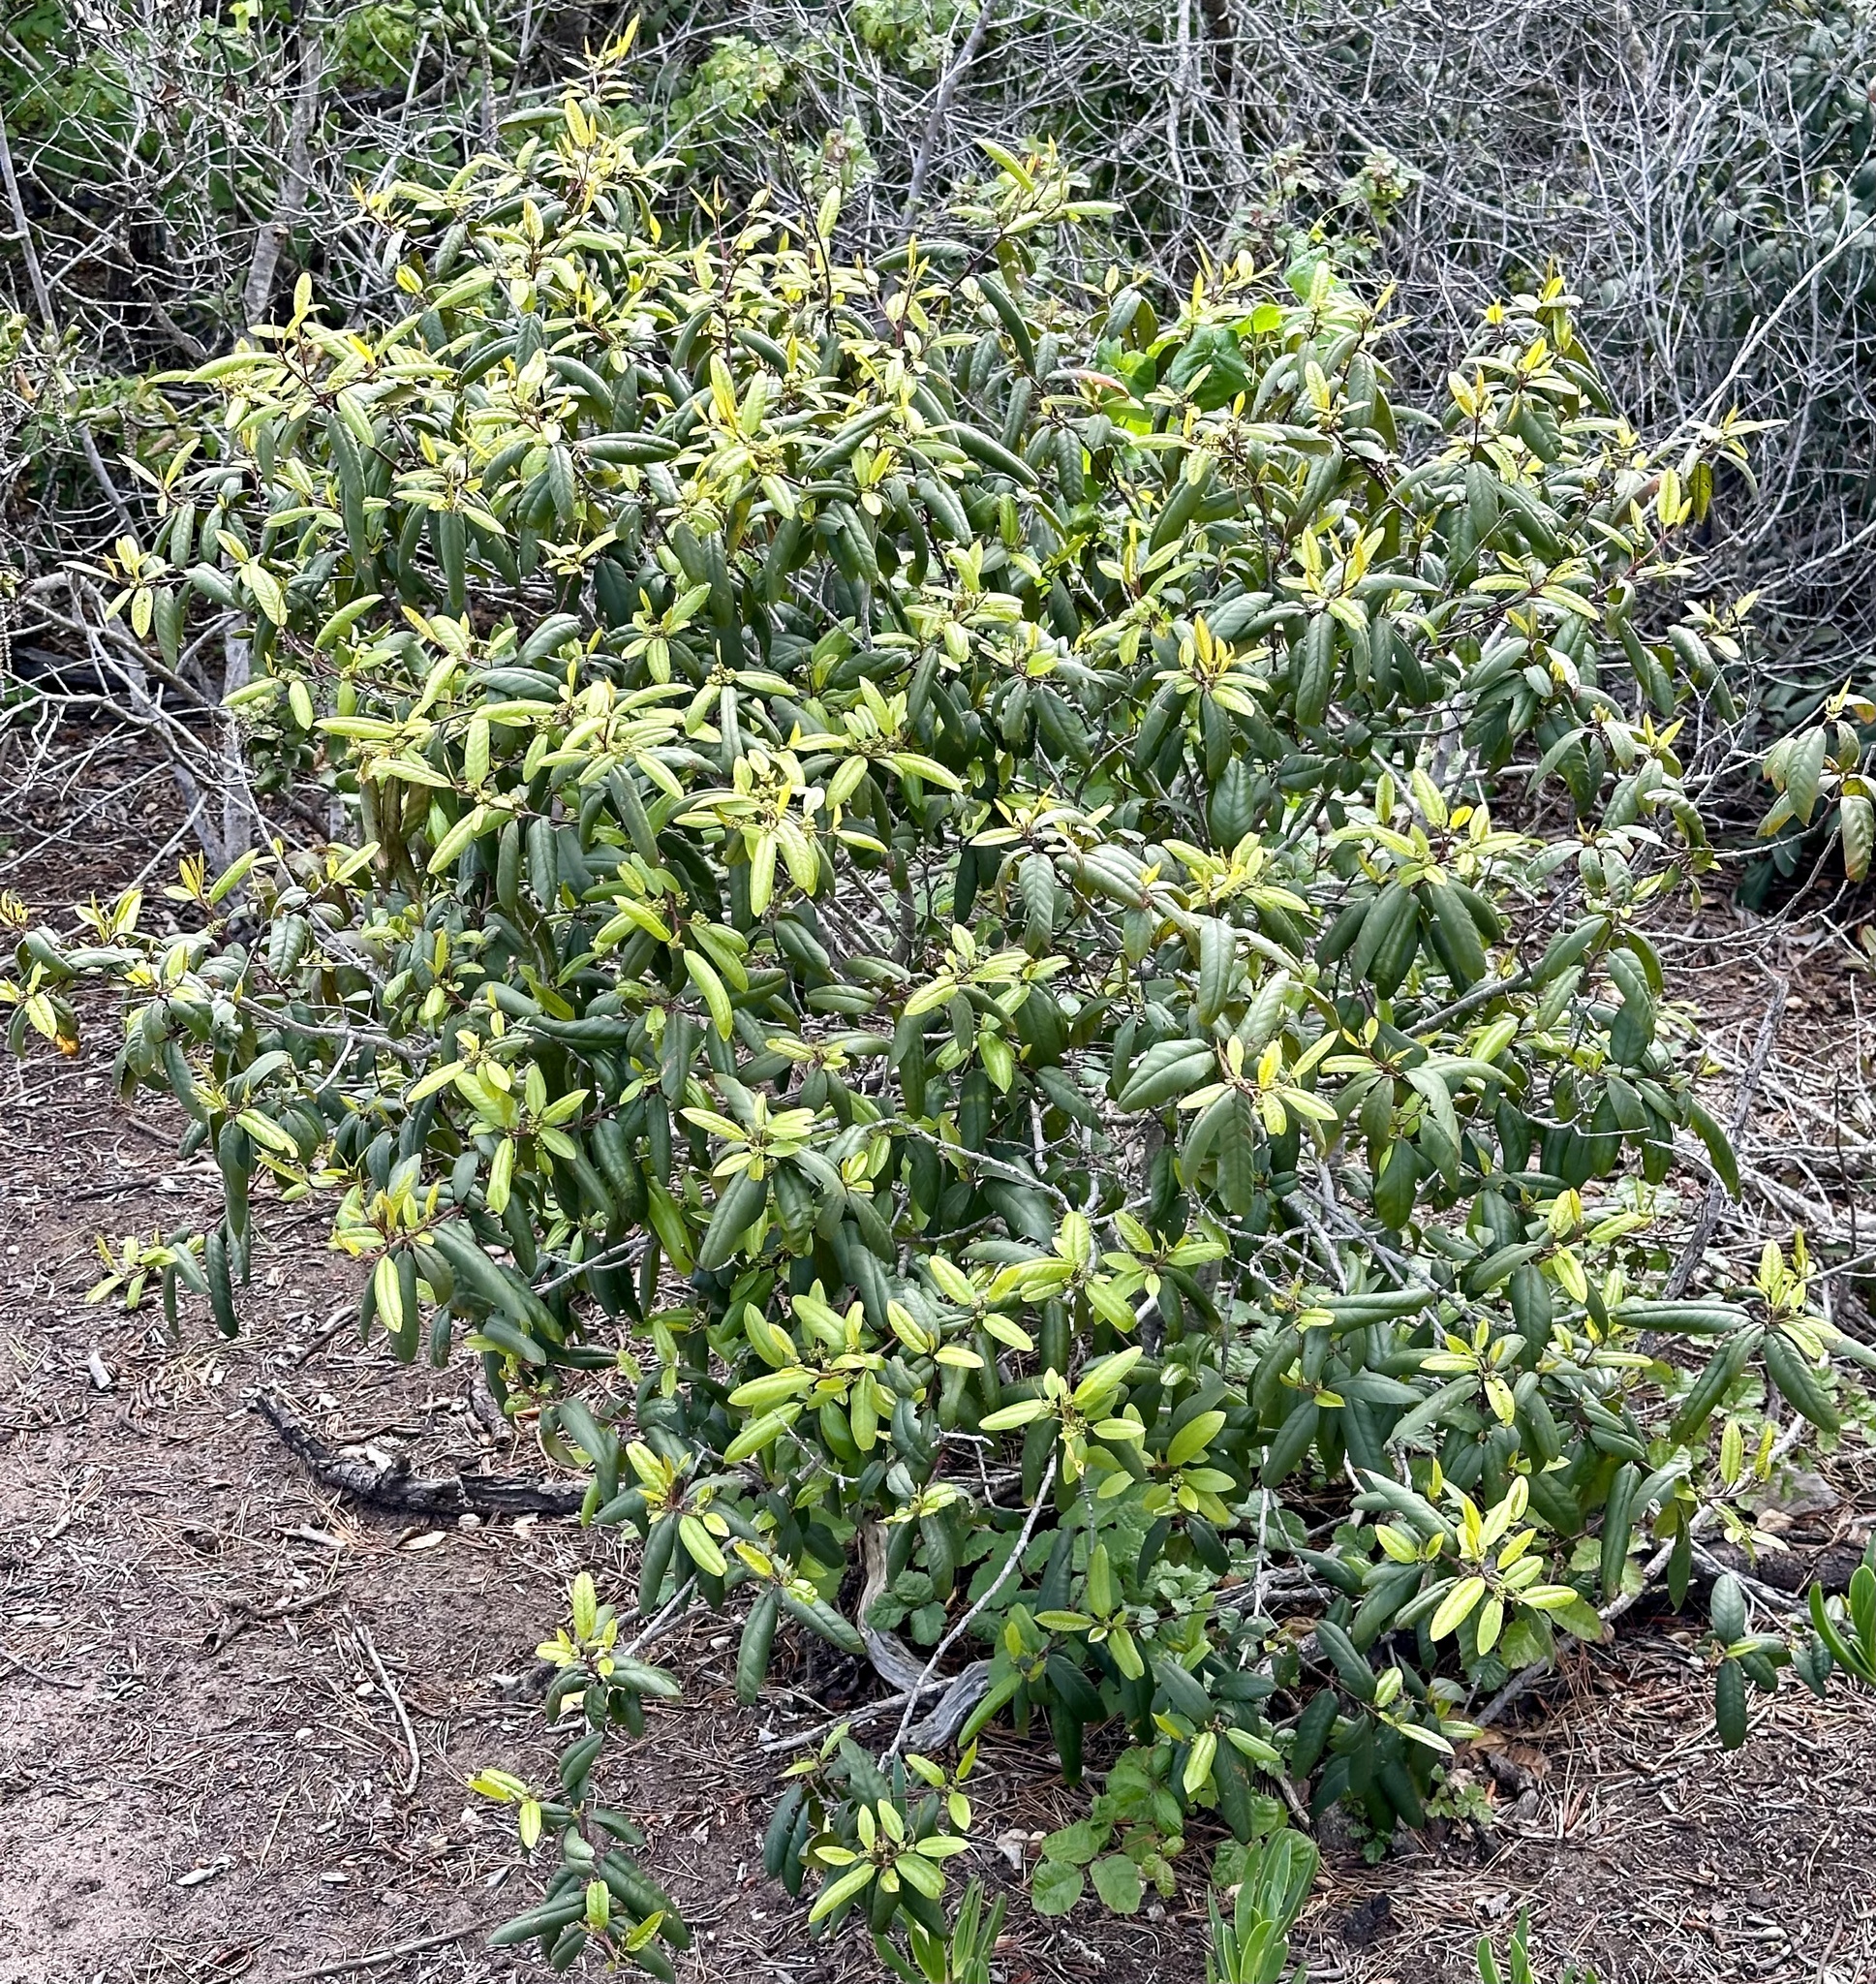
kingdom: Plantae
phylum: Tracheophyta
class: Magnoliopsida
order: Rosales
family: Rhamnaceae
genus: Frangula
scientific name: Frangula californica
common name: California buckthorn
